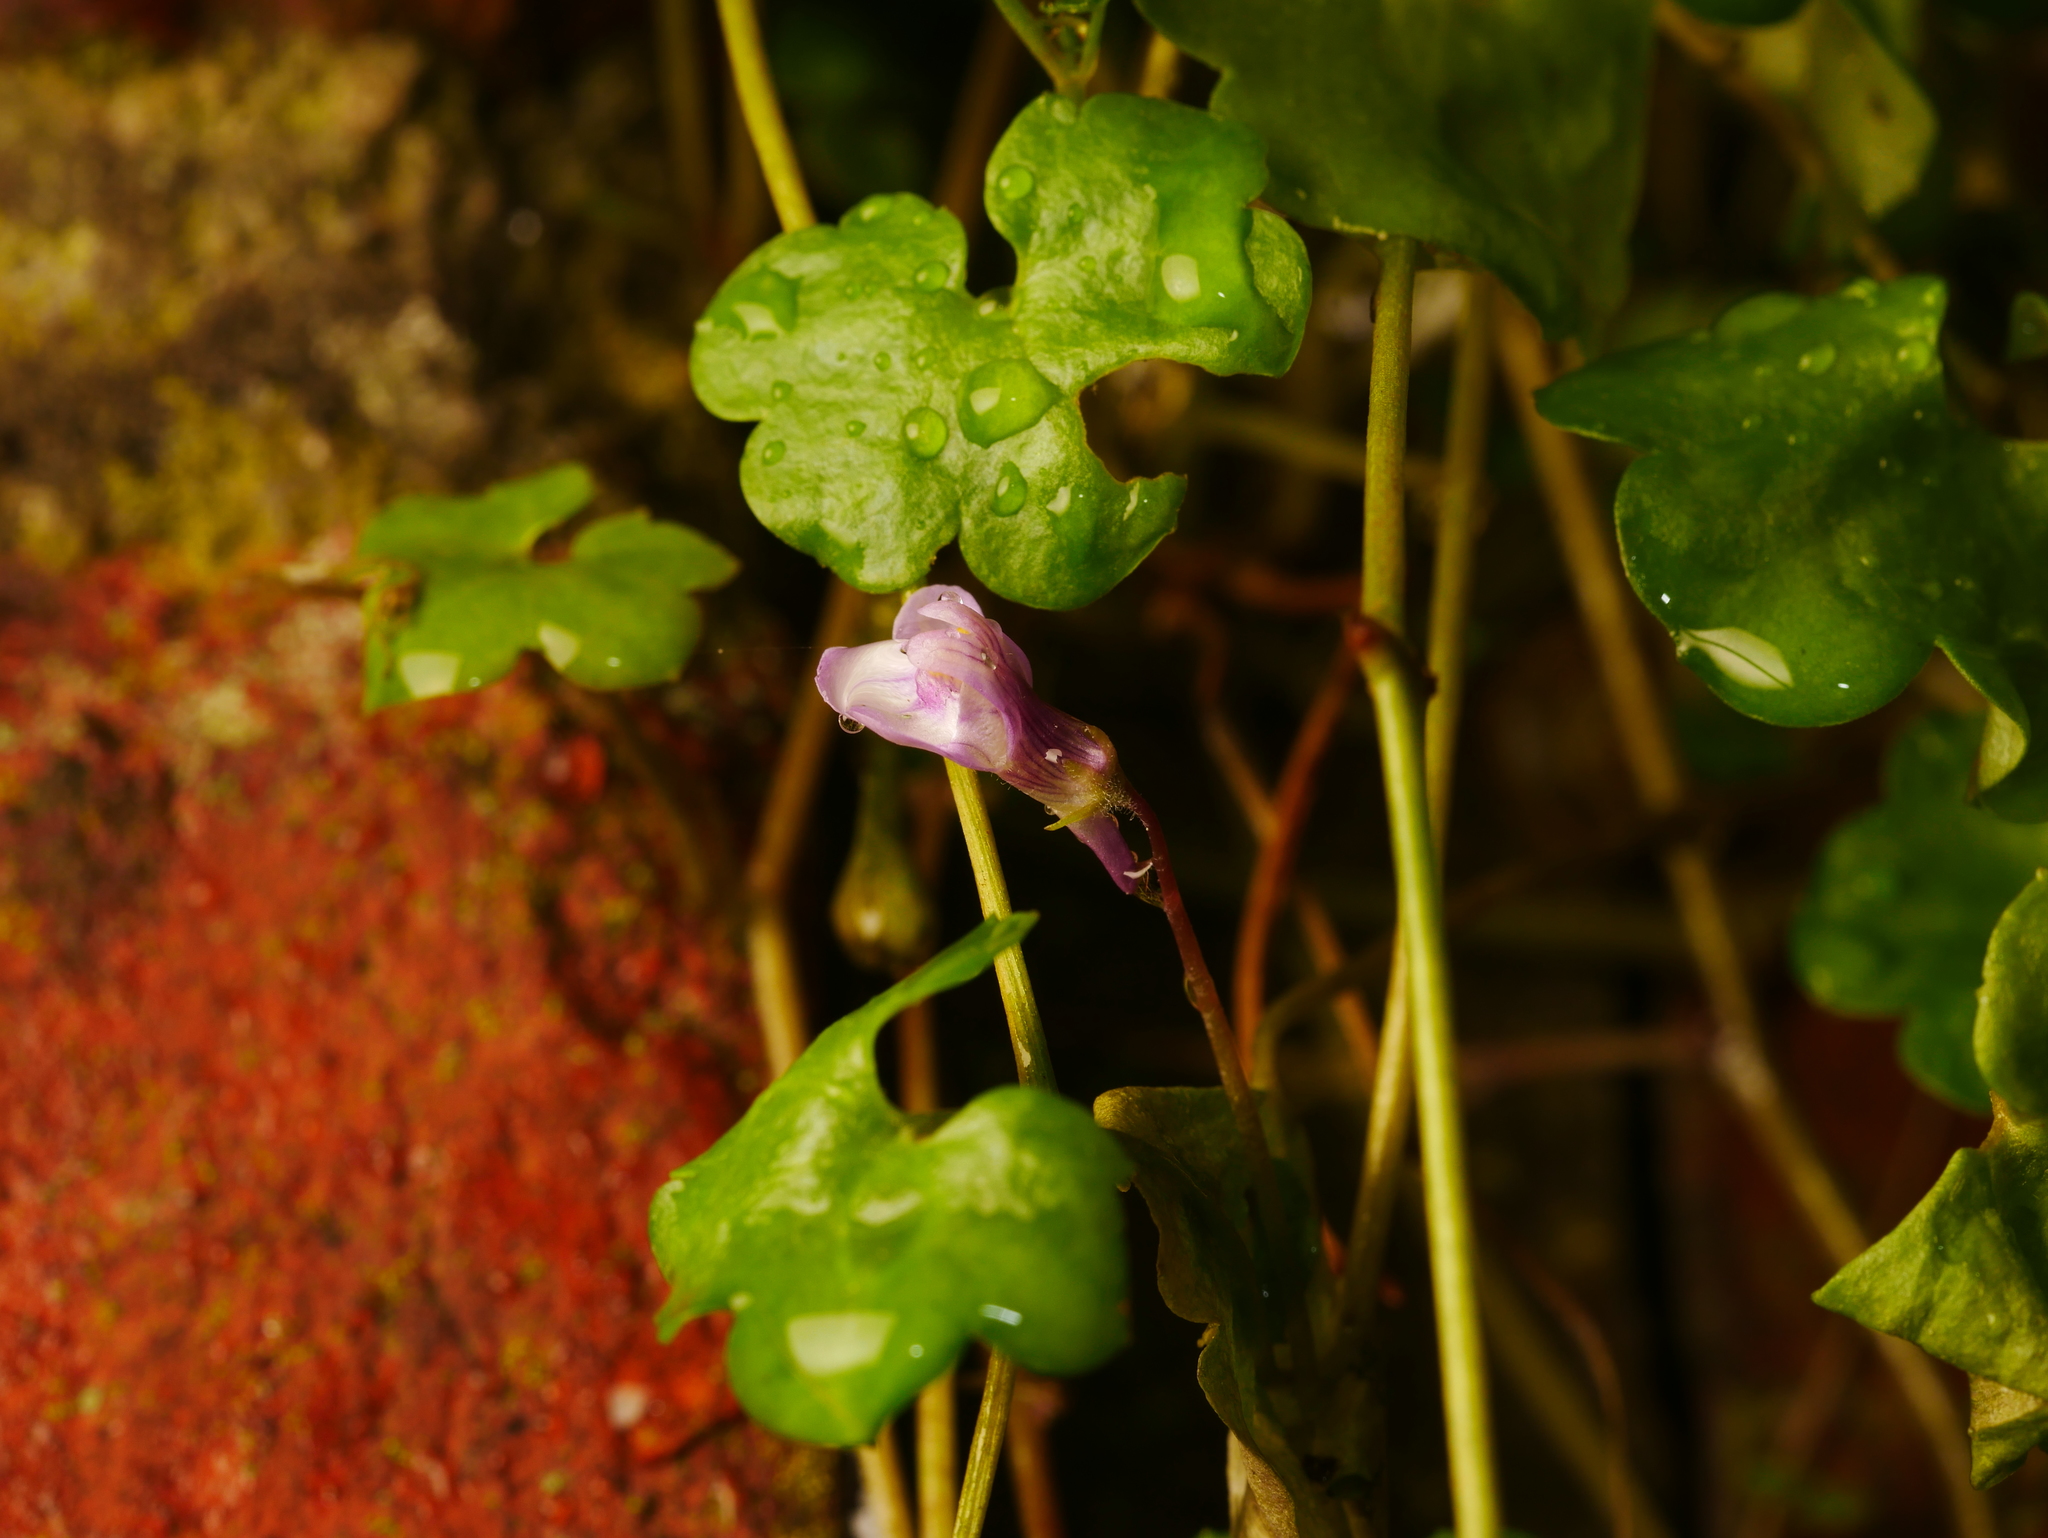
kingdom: Plantae
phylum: Tracheophyta
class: Magnoliopsida
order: Lamiales
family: Plantaginaceae
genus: Cymbalaria
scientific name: Cymbalaria muralis
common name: Ivy-leaved toadflax
